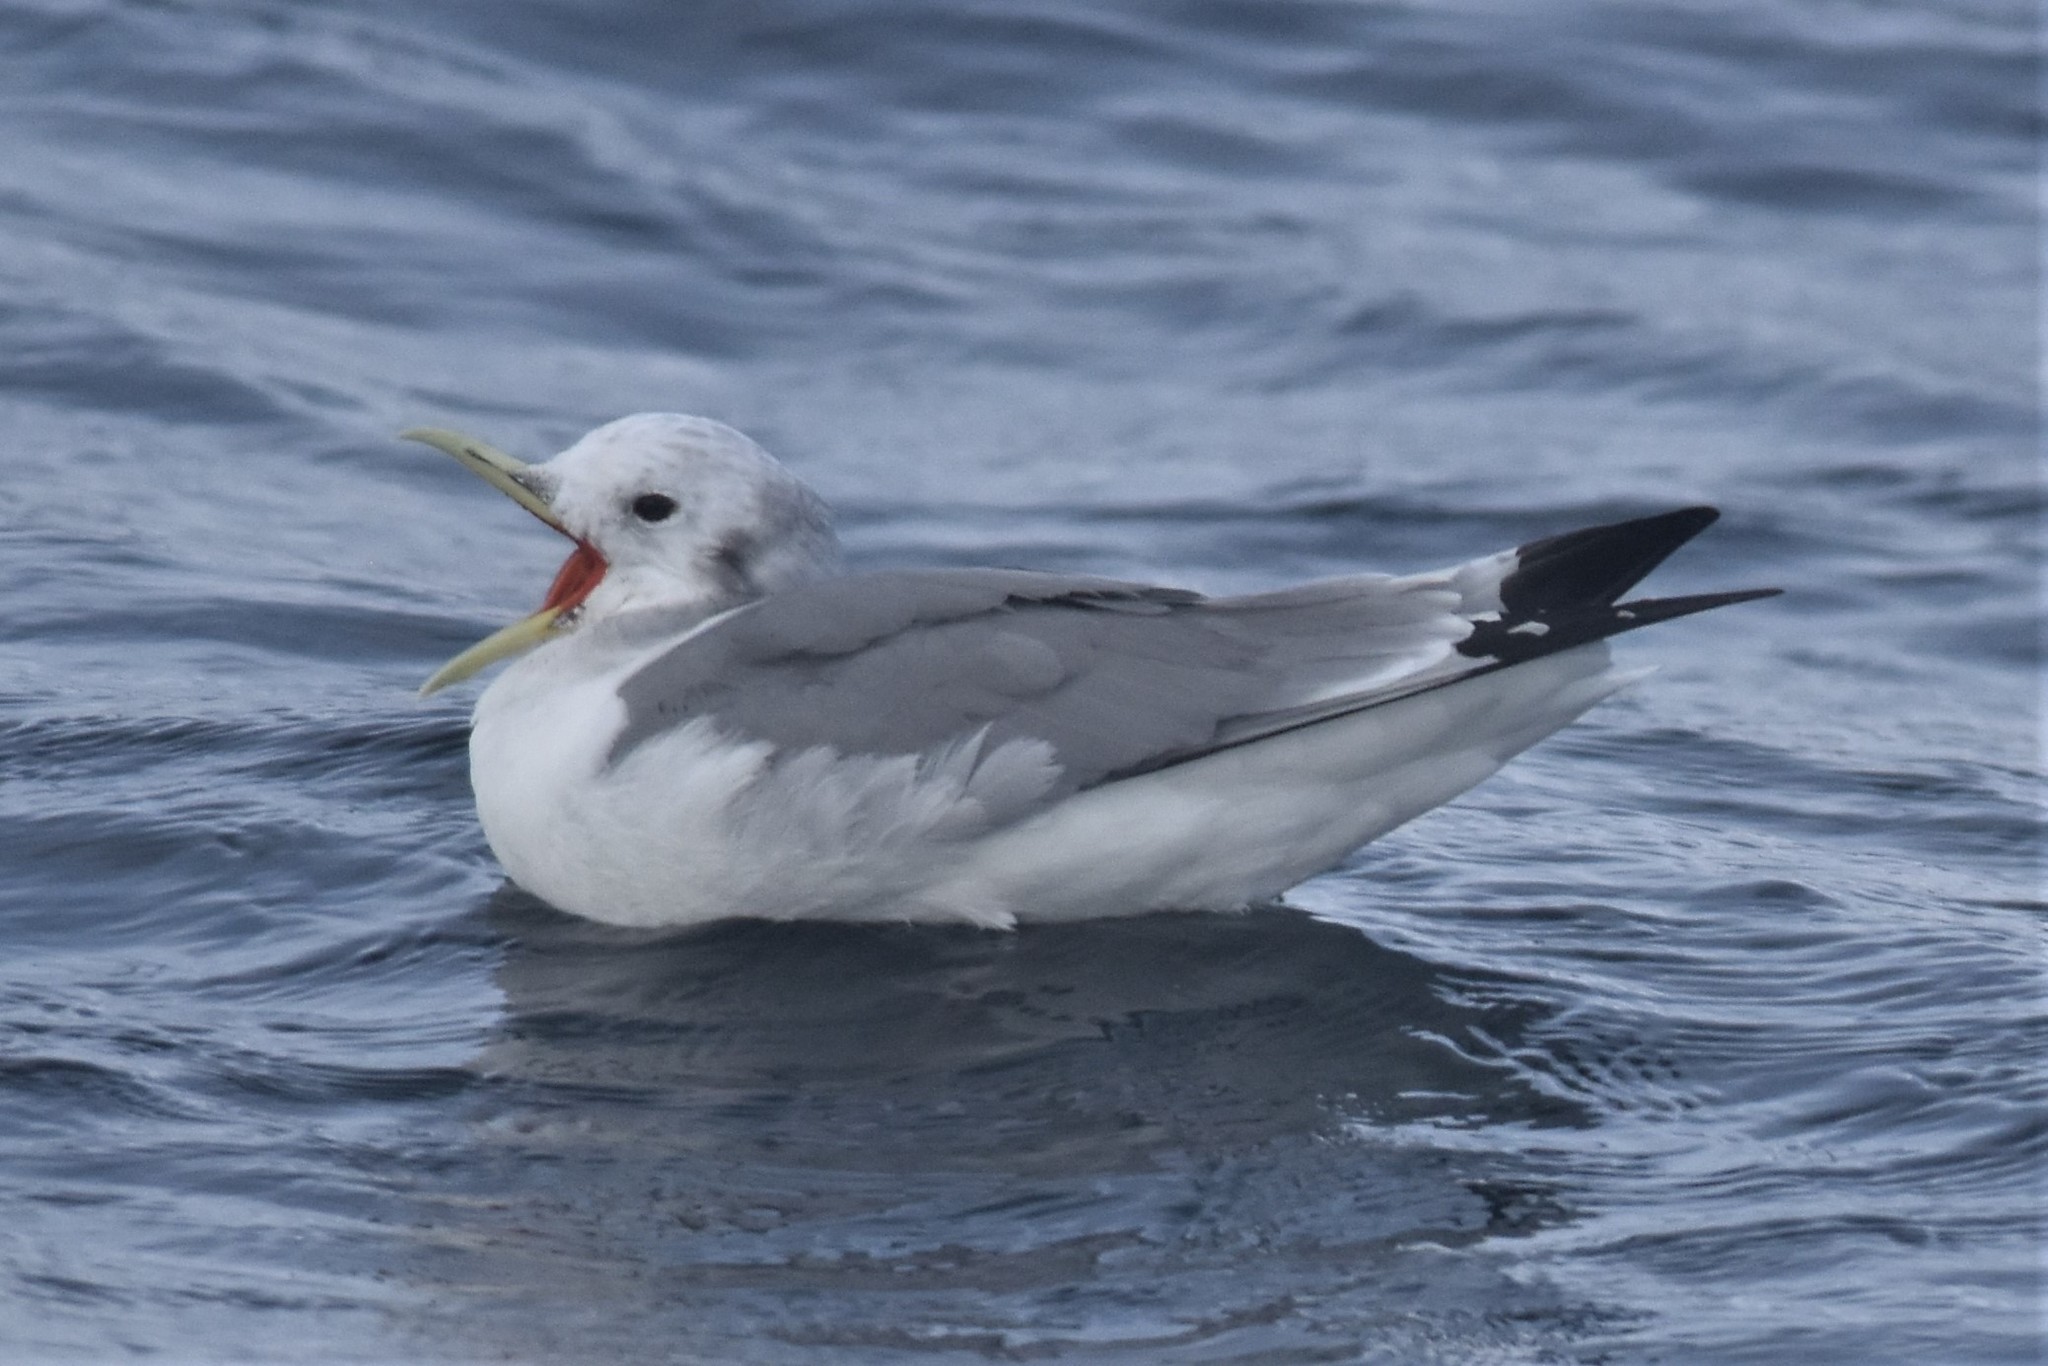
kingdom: Animalia
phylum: Chordata
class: Aves
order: Charadriiformes
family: Laridae
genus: Rissa
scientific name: Rissa tridactyla
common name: Black-legged kittiwake
